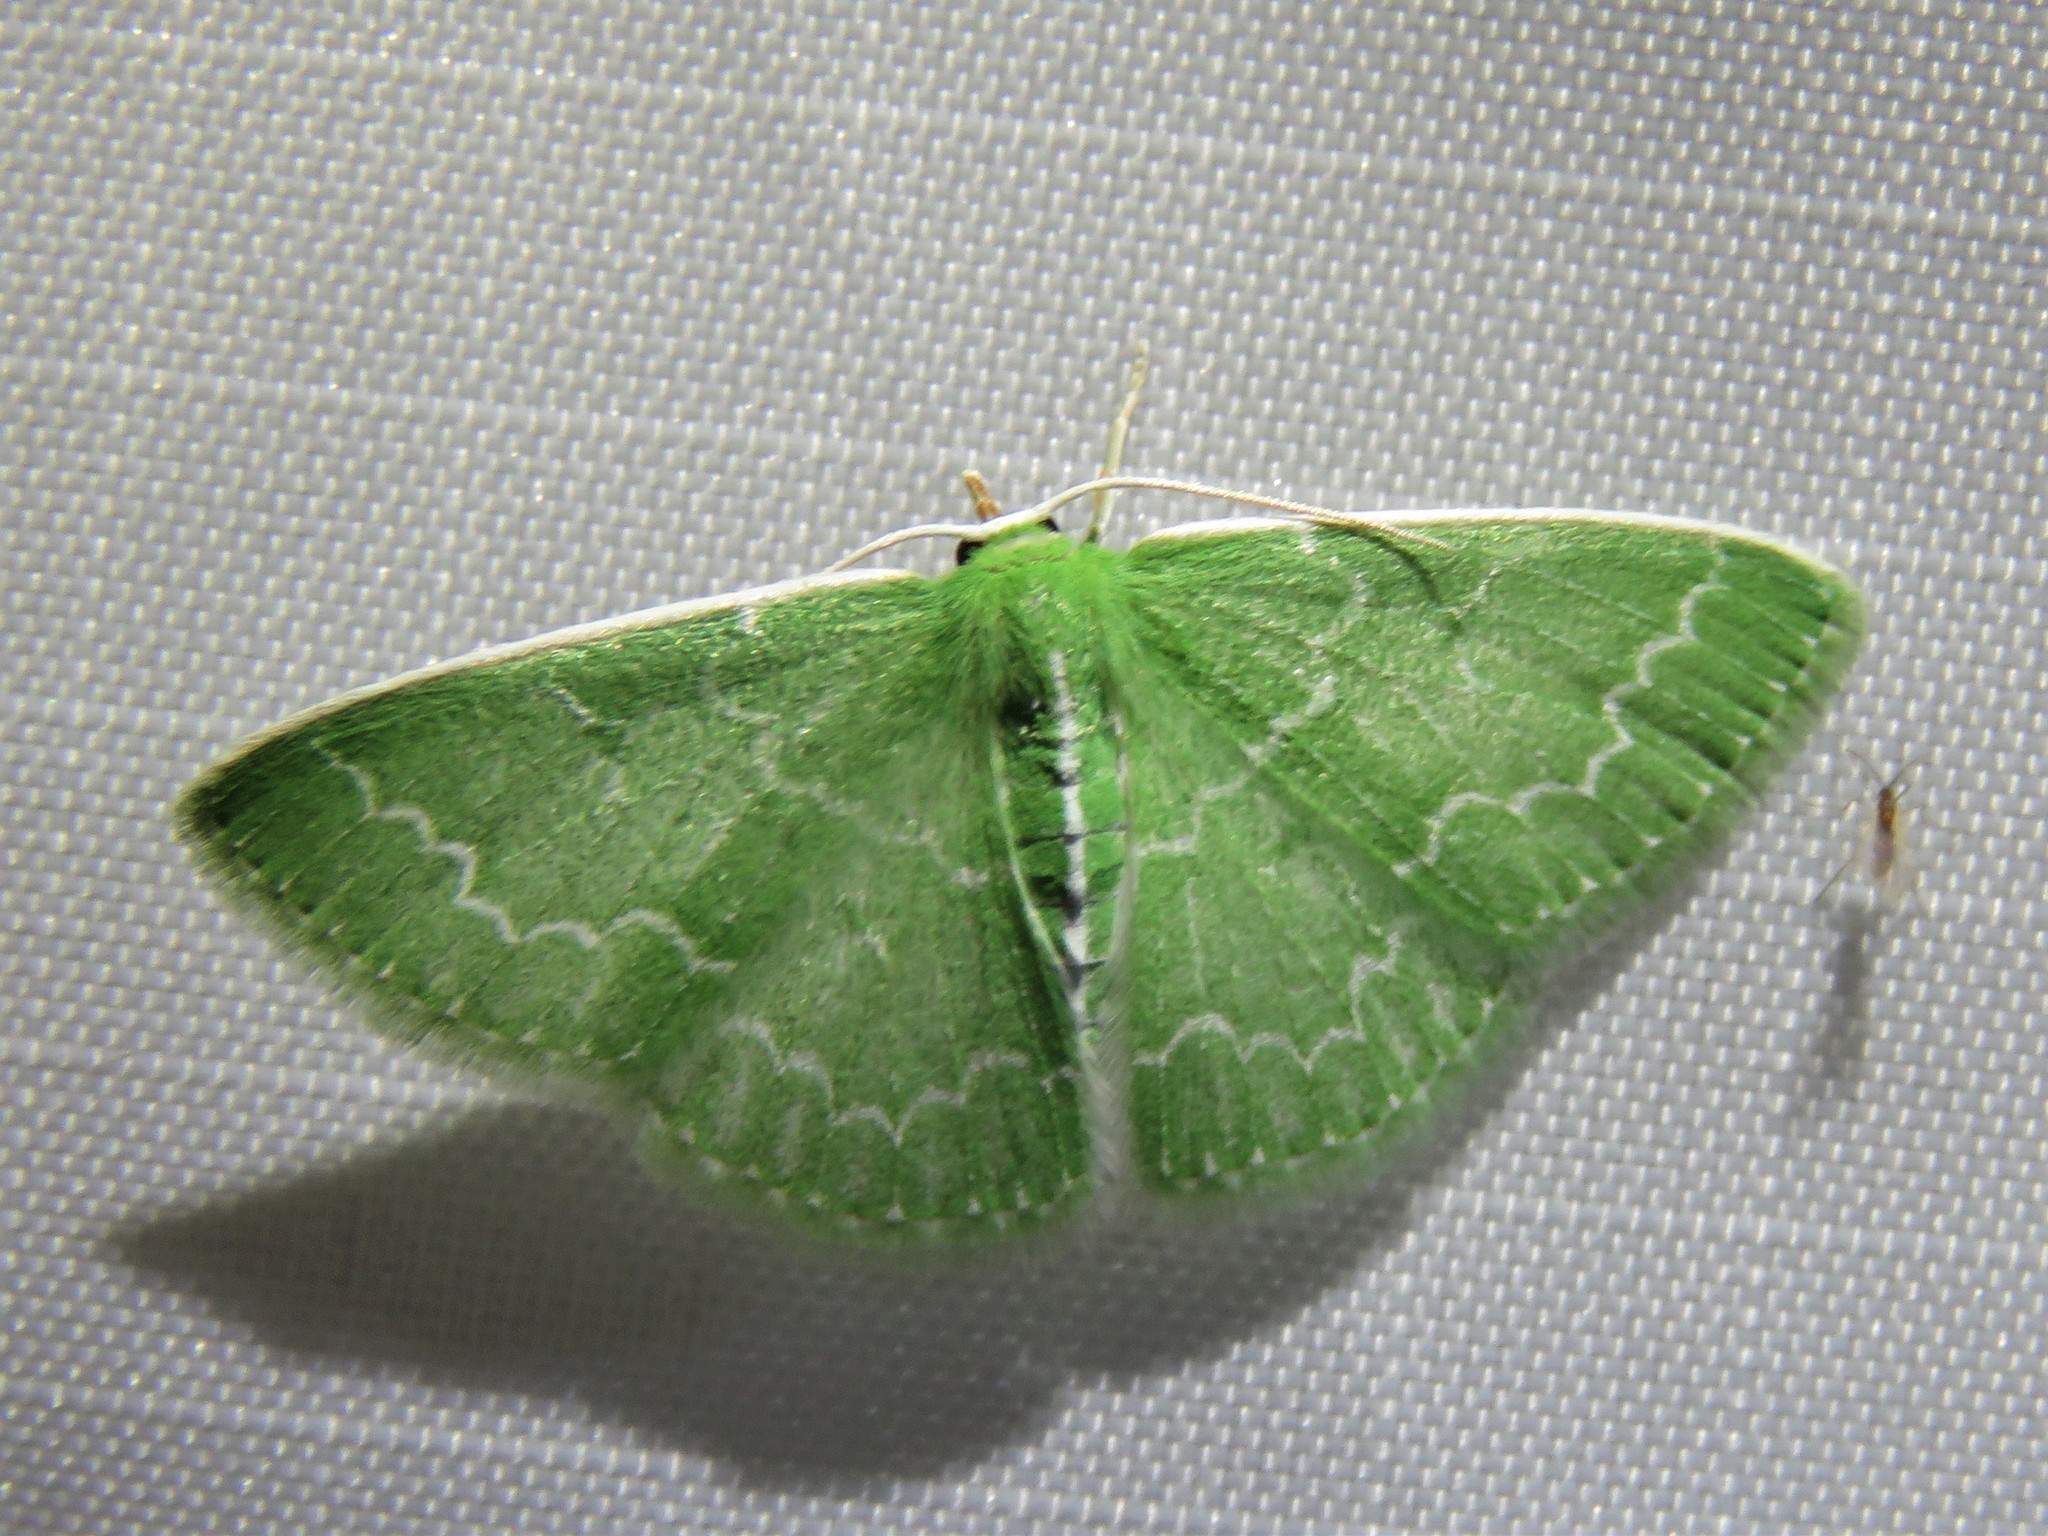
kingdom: Animalia
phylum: Arthropoda
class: Insecta
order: Lepidoptera
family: Geometridae
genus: Synchlora
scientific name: Synchlora frondaria
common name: Southern emerald
